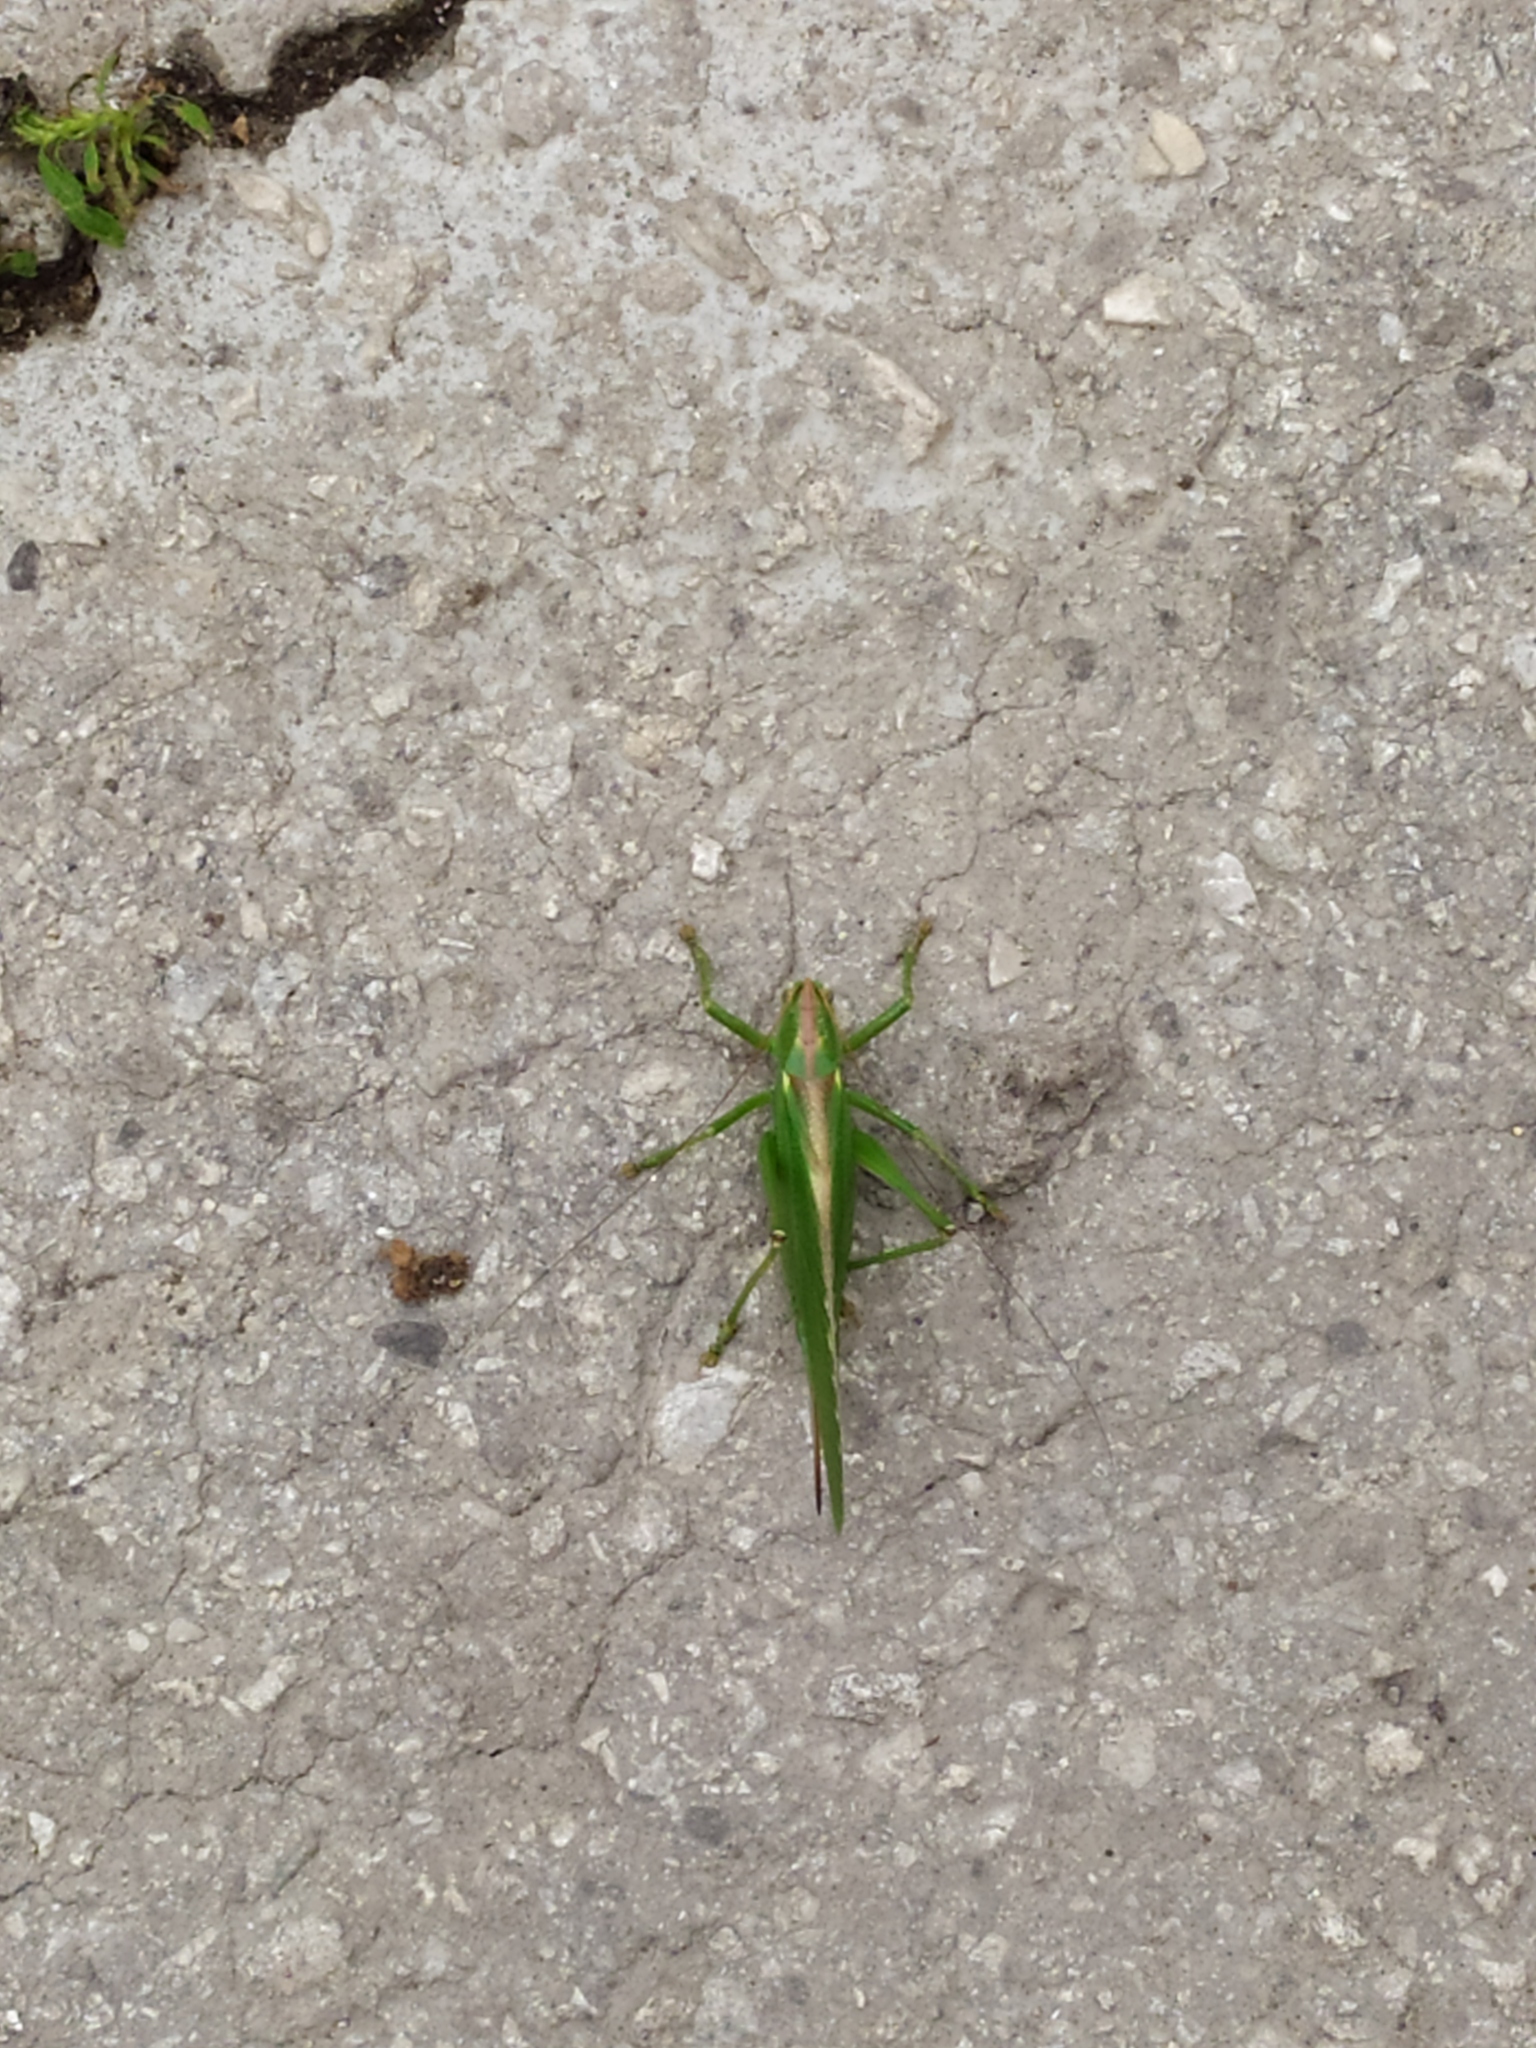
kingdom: Animalia
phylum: Arthropoda
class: Insecta
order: Orthoptera
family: Tettigoniidae
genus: Tettigonia
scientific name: Tettigonia viridissima
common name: Great green bush-cricket
